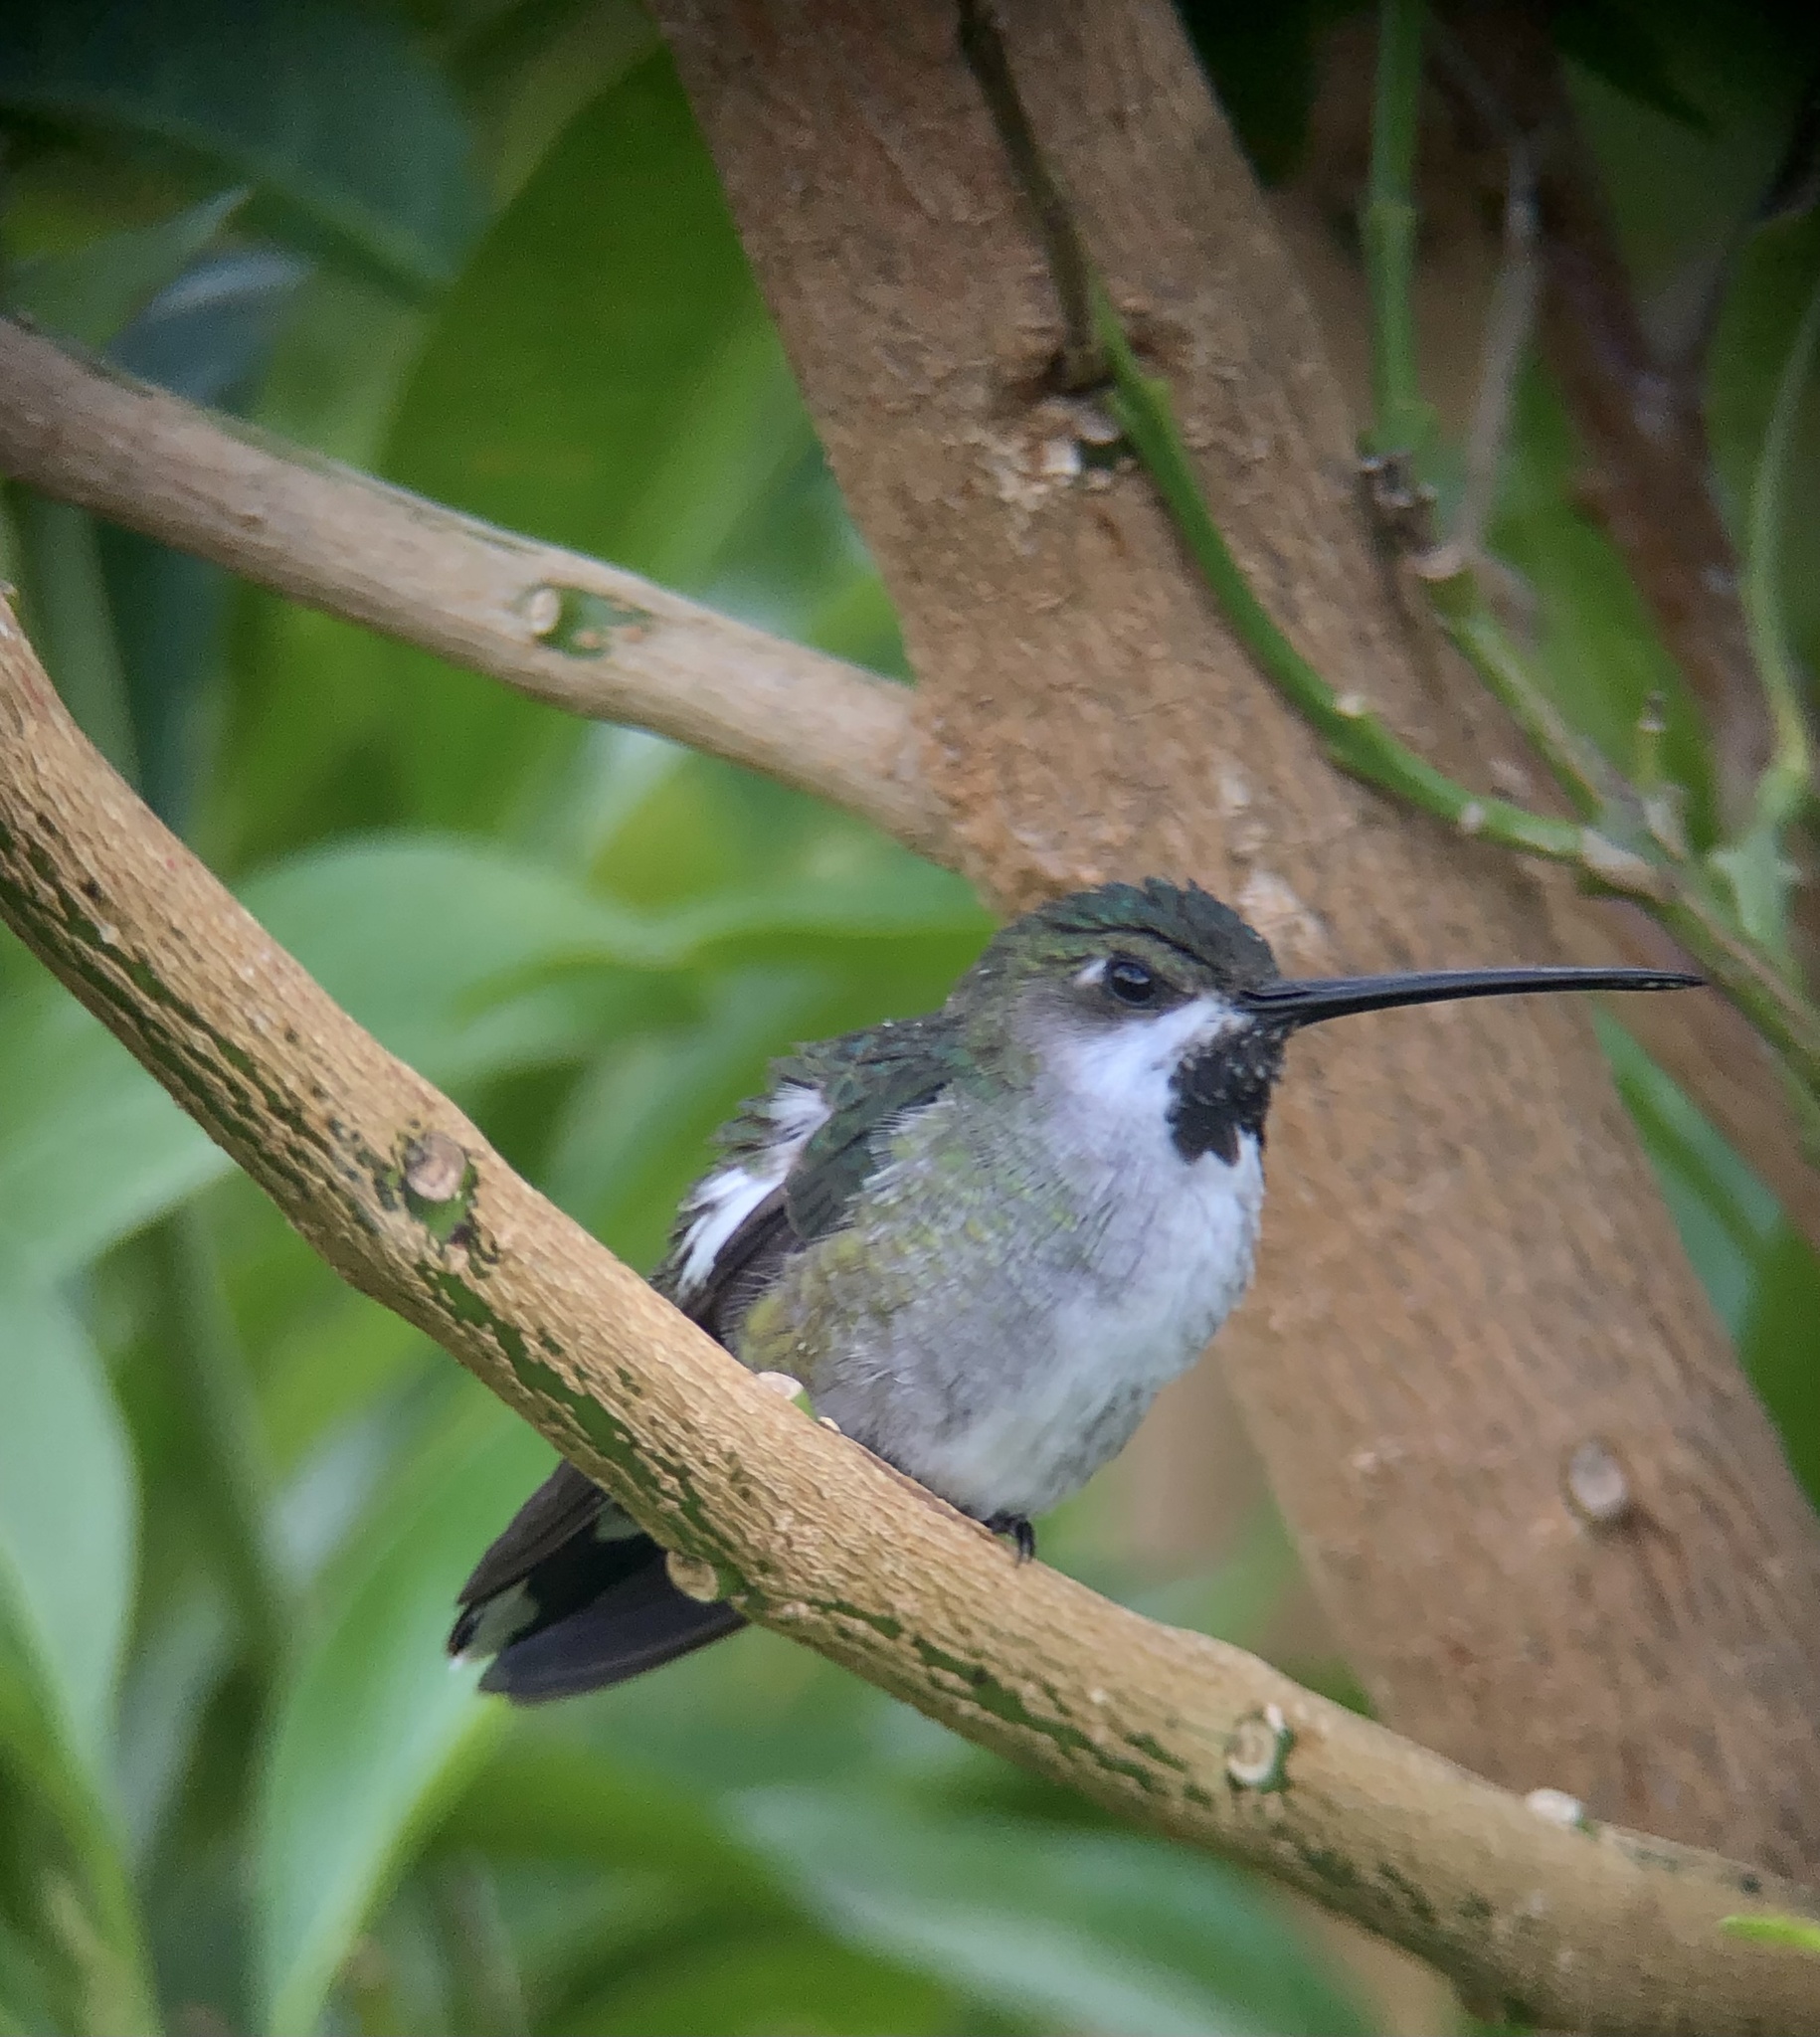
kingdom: Animalia
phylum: Chordata
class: Aves
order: Apodiformes
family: Trochilidae
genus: Heliomaster
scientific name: Heliomaster longirostris
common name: Long-billed starthroat
